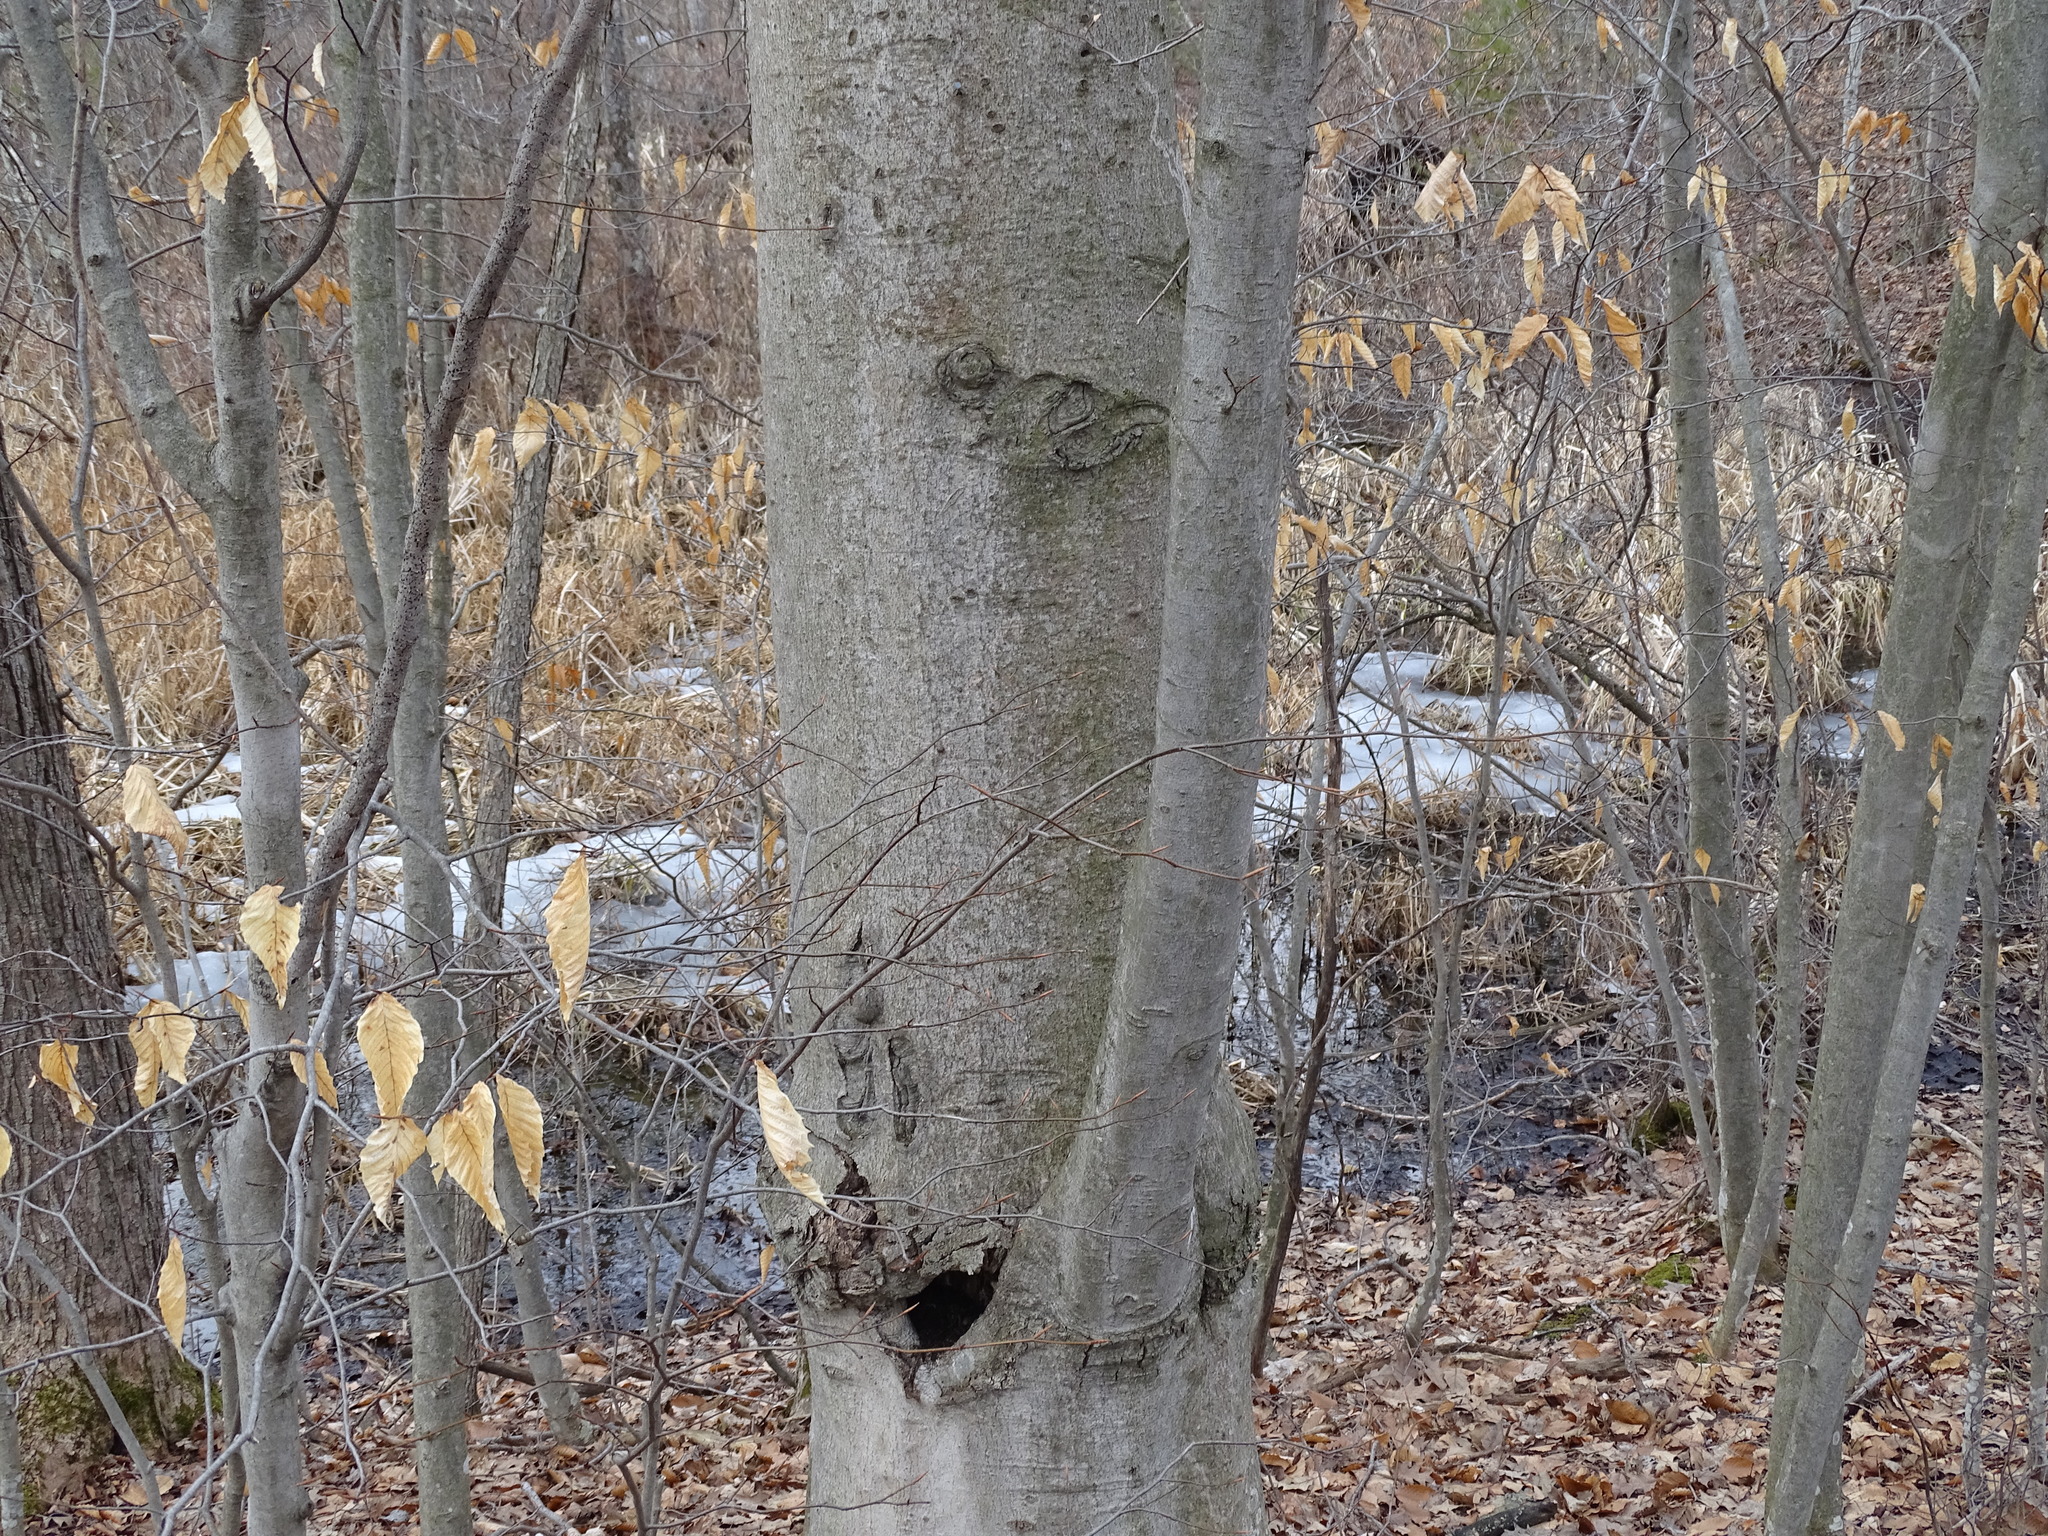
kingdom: Plantae
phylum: Tracheophyta
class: Magnoliopsida
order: Fagales
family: Fagaceae
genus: Fagus
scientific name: Fagus grandifolia
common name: American beech
